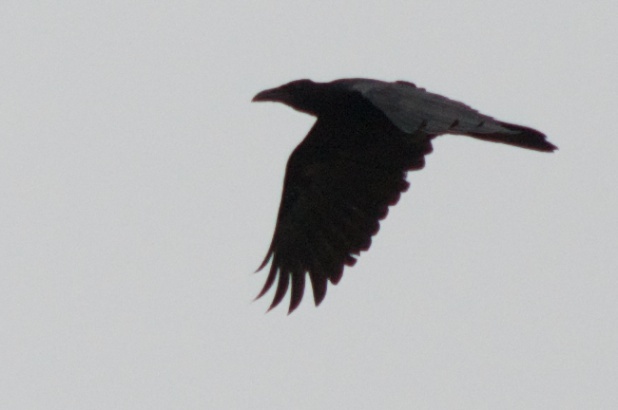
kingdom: Animalia
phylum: Chordata
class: Aves
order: Passeriformes
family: Corvidae
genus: Corvus
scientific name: Corvus brachyrhynchos
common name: American crow
